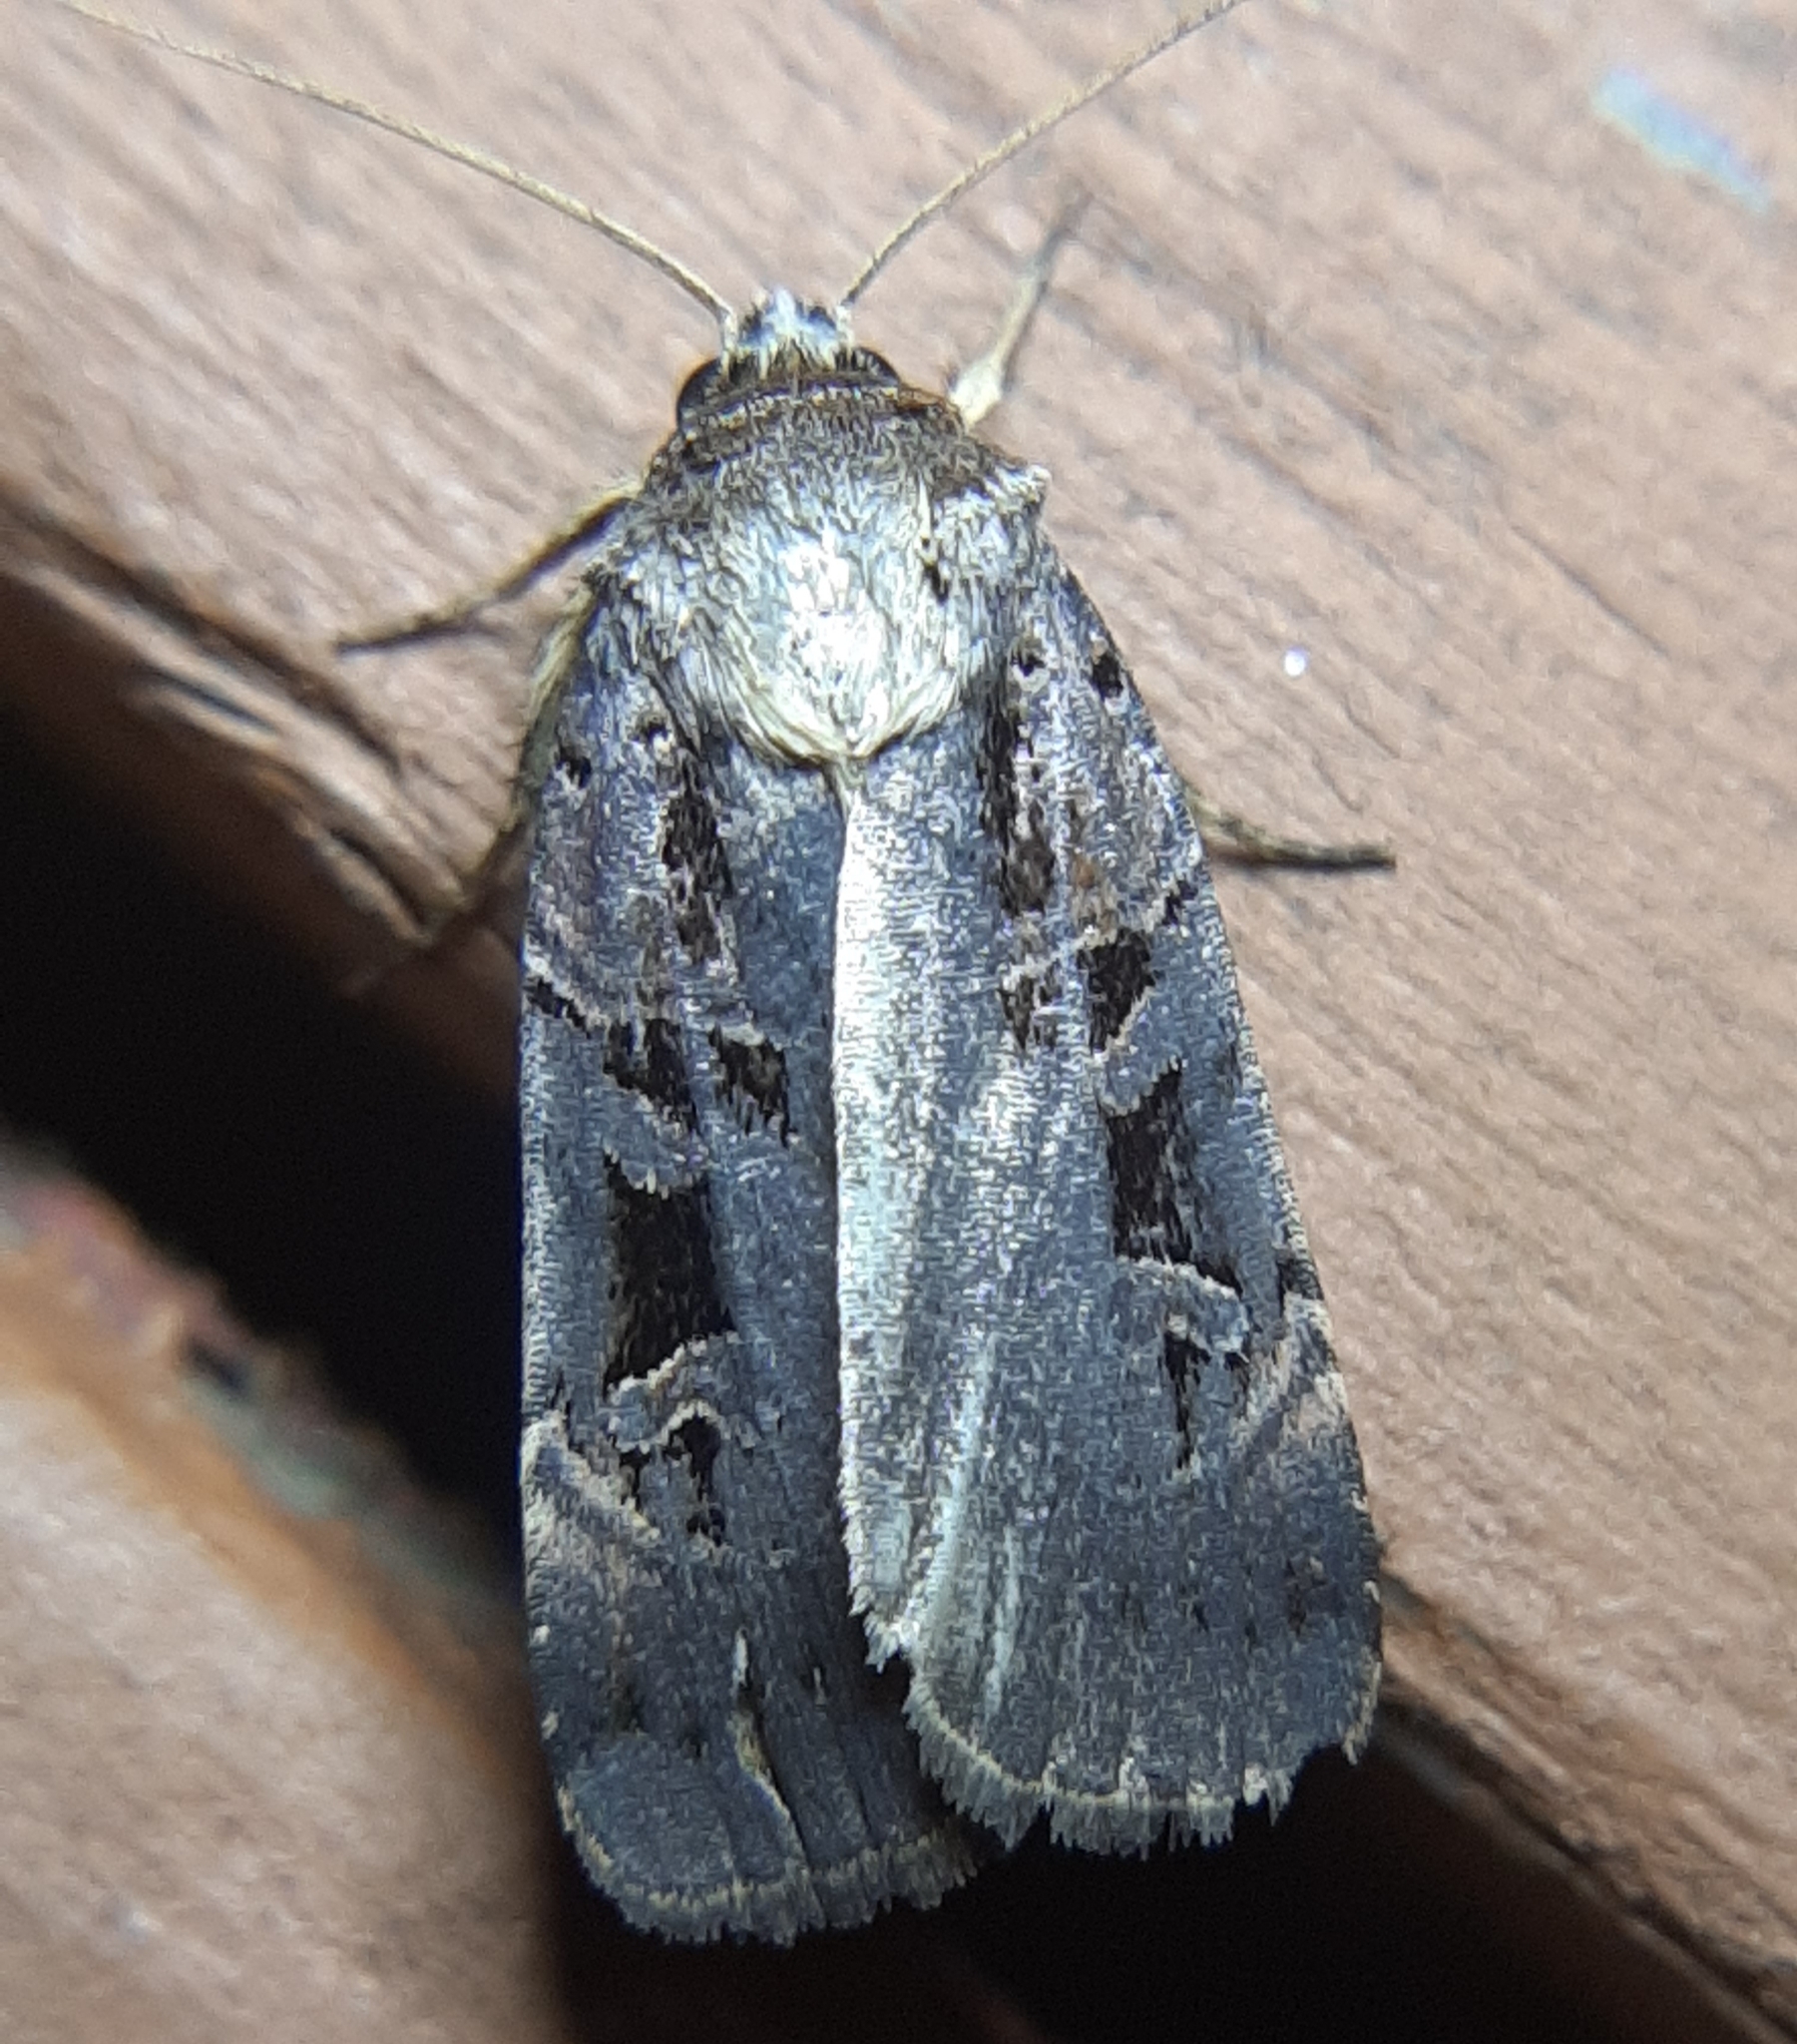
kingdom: Animalia
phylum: Arthropoda
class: Insecta
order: Lepidoptera
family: Noctuidae
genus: Pseudohermonassa
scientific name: Pseudohermonassa tenuicula
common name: Morrison's sooty dart
